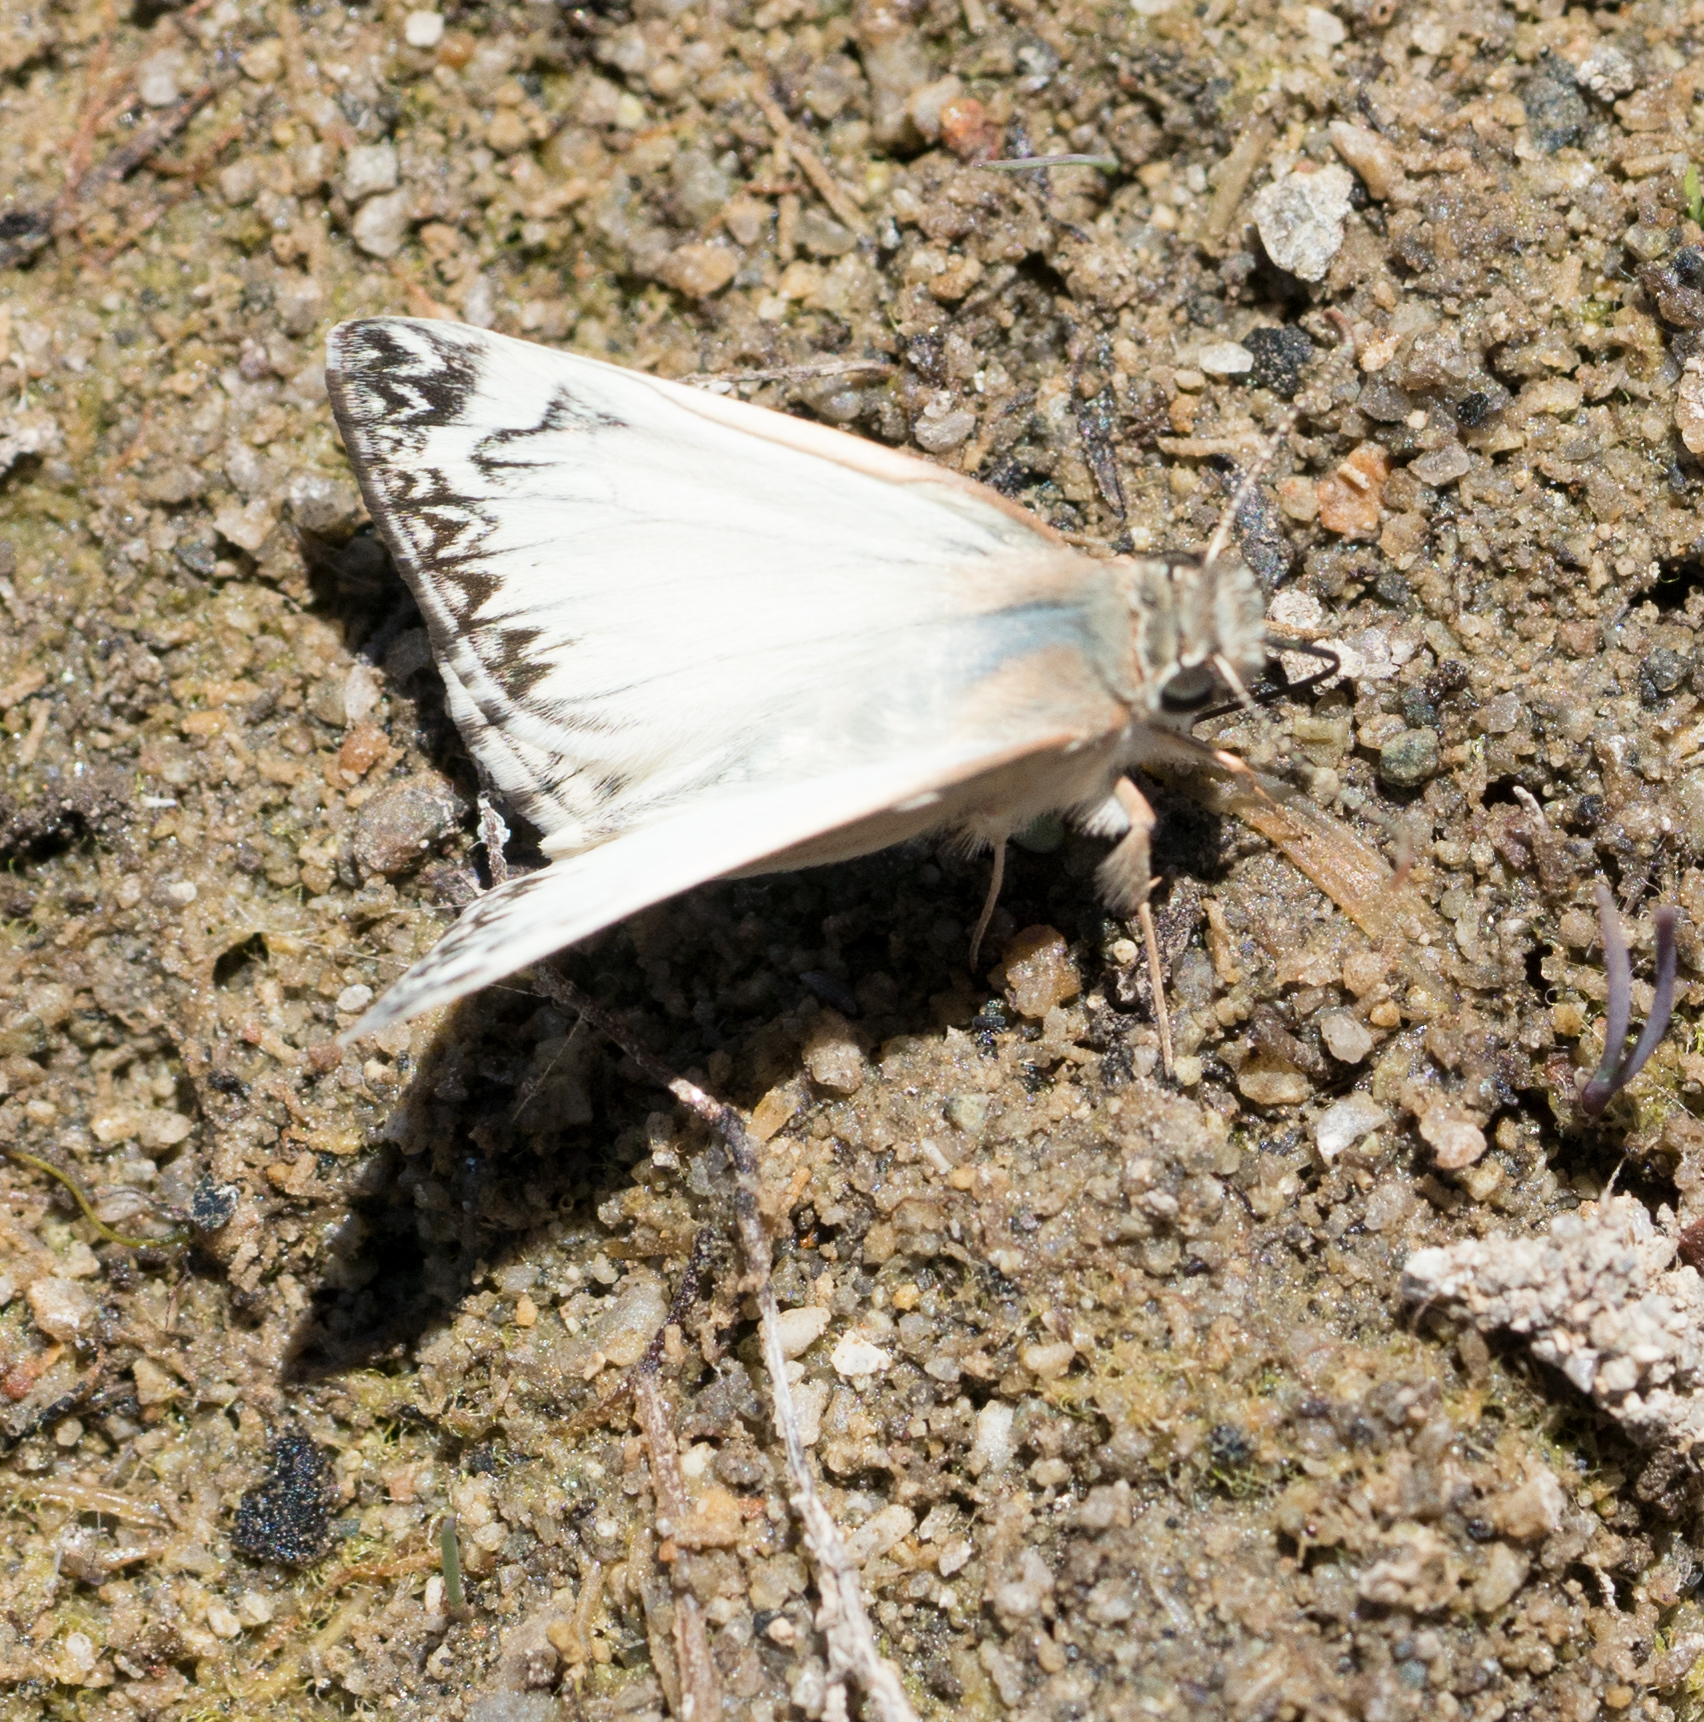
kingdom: Animalia
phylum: Arthropoda
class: Insecta
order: Lepidoptera
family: Hesperiidae
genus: Heliopetes
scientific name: Heliopetes ericetorum
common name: Northern white-skipper
